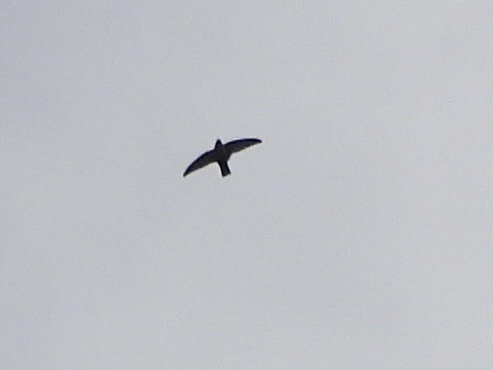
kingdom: Animalia
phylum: Chordata
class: Aves
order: Apodiformes
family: Apodidae
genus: Chaetura
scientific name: Chaetura vauxi
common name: Vaux's swift
